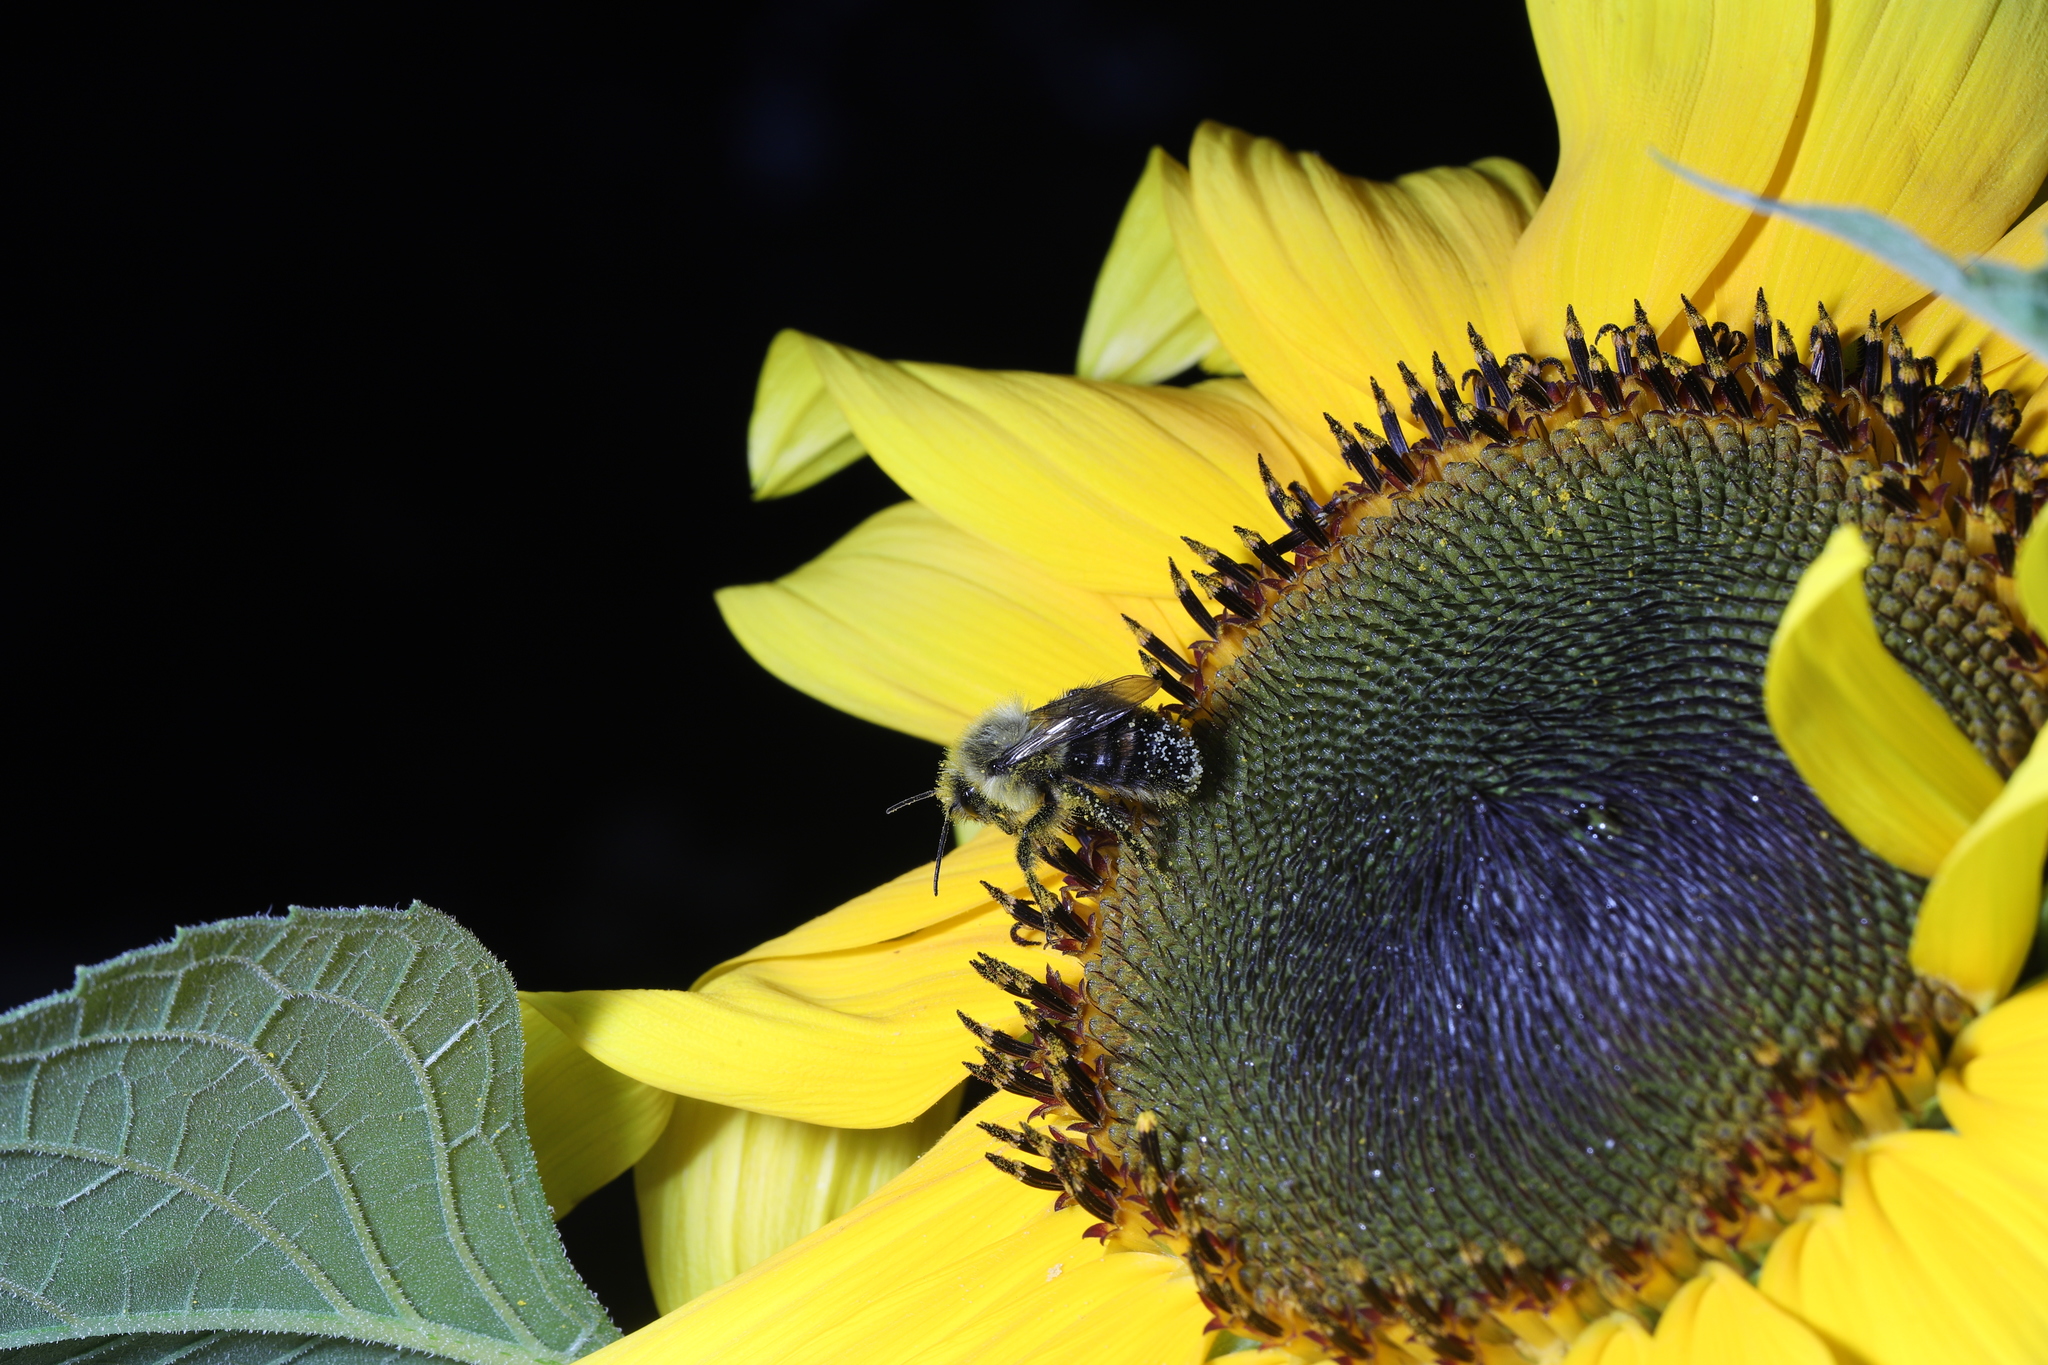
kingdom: Animalia
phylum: Arthropoda
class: Insecta
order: Hymenoptera
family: Apidae
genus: Bombus
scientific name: Bombus impatiens
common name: Common eastern bumble bee
